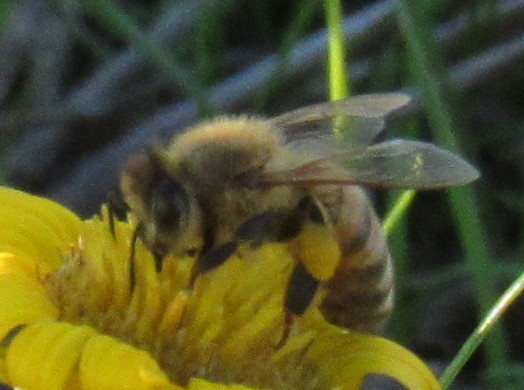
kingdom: Animalia
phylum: Arthropoda
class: Insecta
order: Hymenoptera
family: Apidae
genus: Apis
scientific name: Apis mellifera
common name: Honey bee
